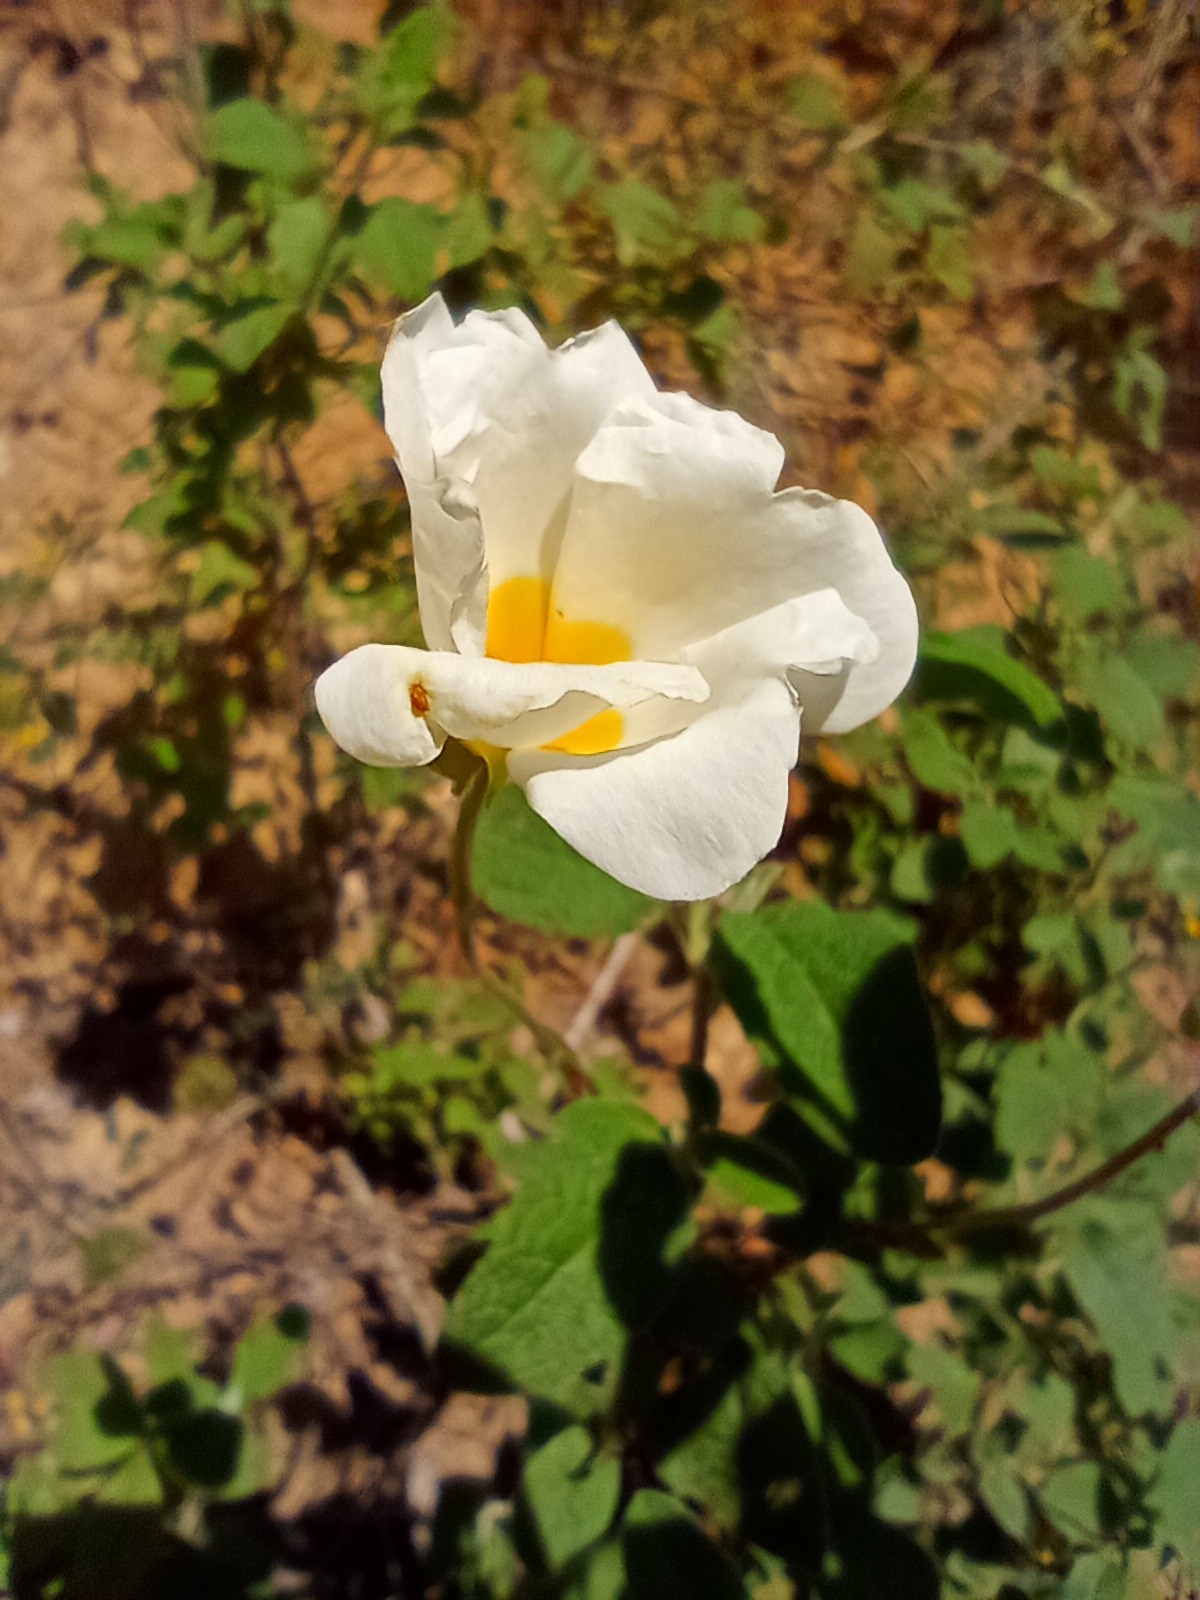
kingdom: Plantae
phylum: Tracheophyta
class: Magnoliopsida
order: Malvales
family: Cistaceae
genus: Cistus
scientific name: Cistus salviifolius
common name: Salvia cistus
